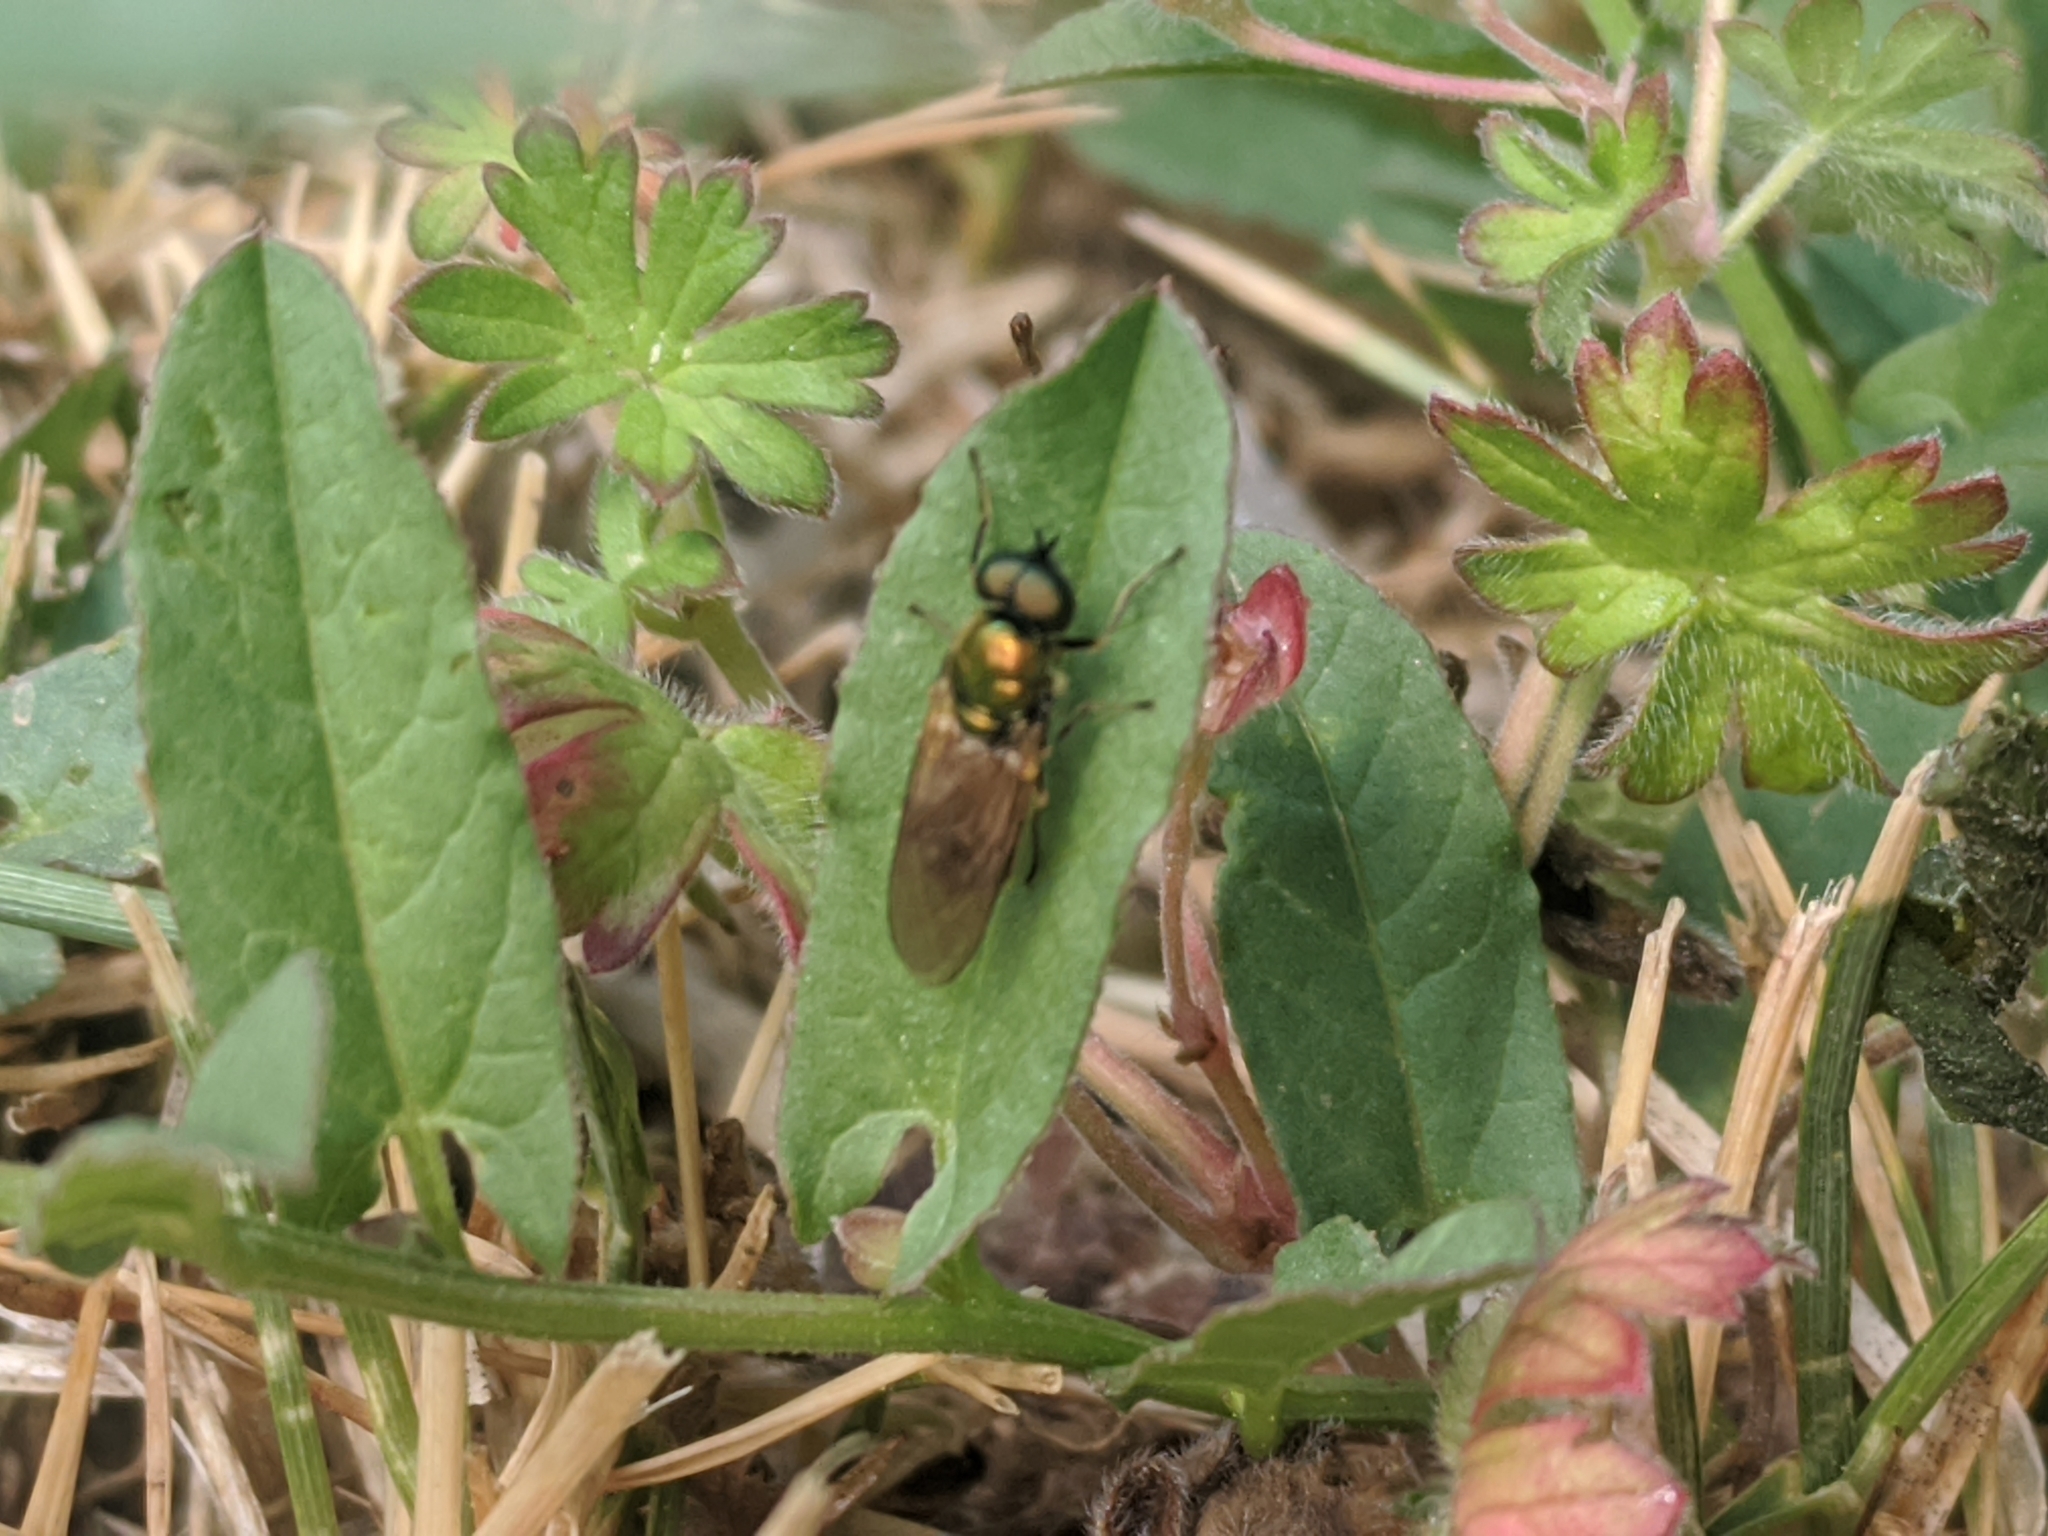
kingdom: Animalia
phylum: Arthropoda
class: Insecta
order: Diptera
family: Stratiomyidae
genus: Chloromyia
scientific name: Chloromyia formosa
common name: Soldier fly
